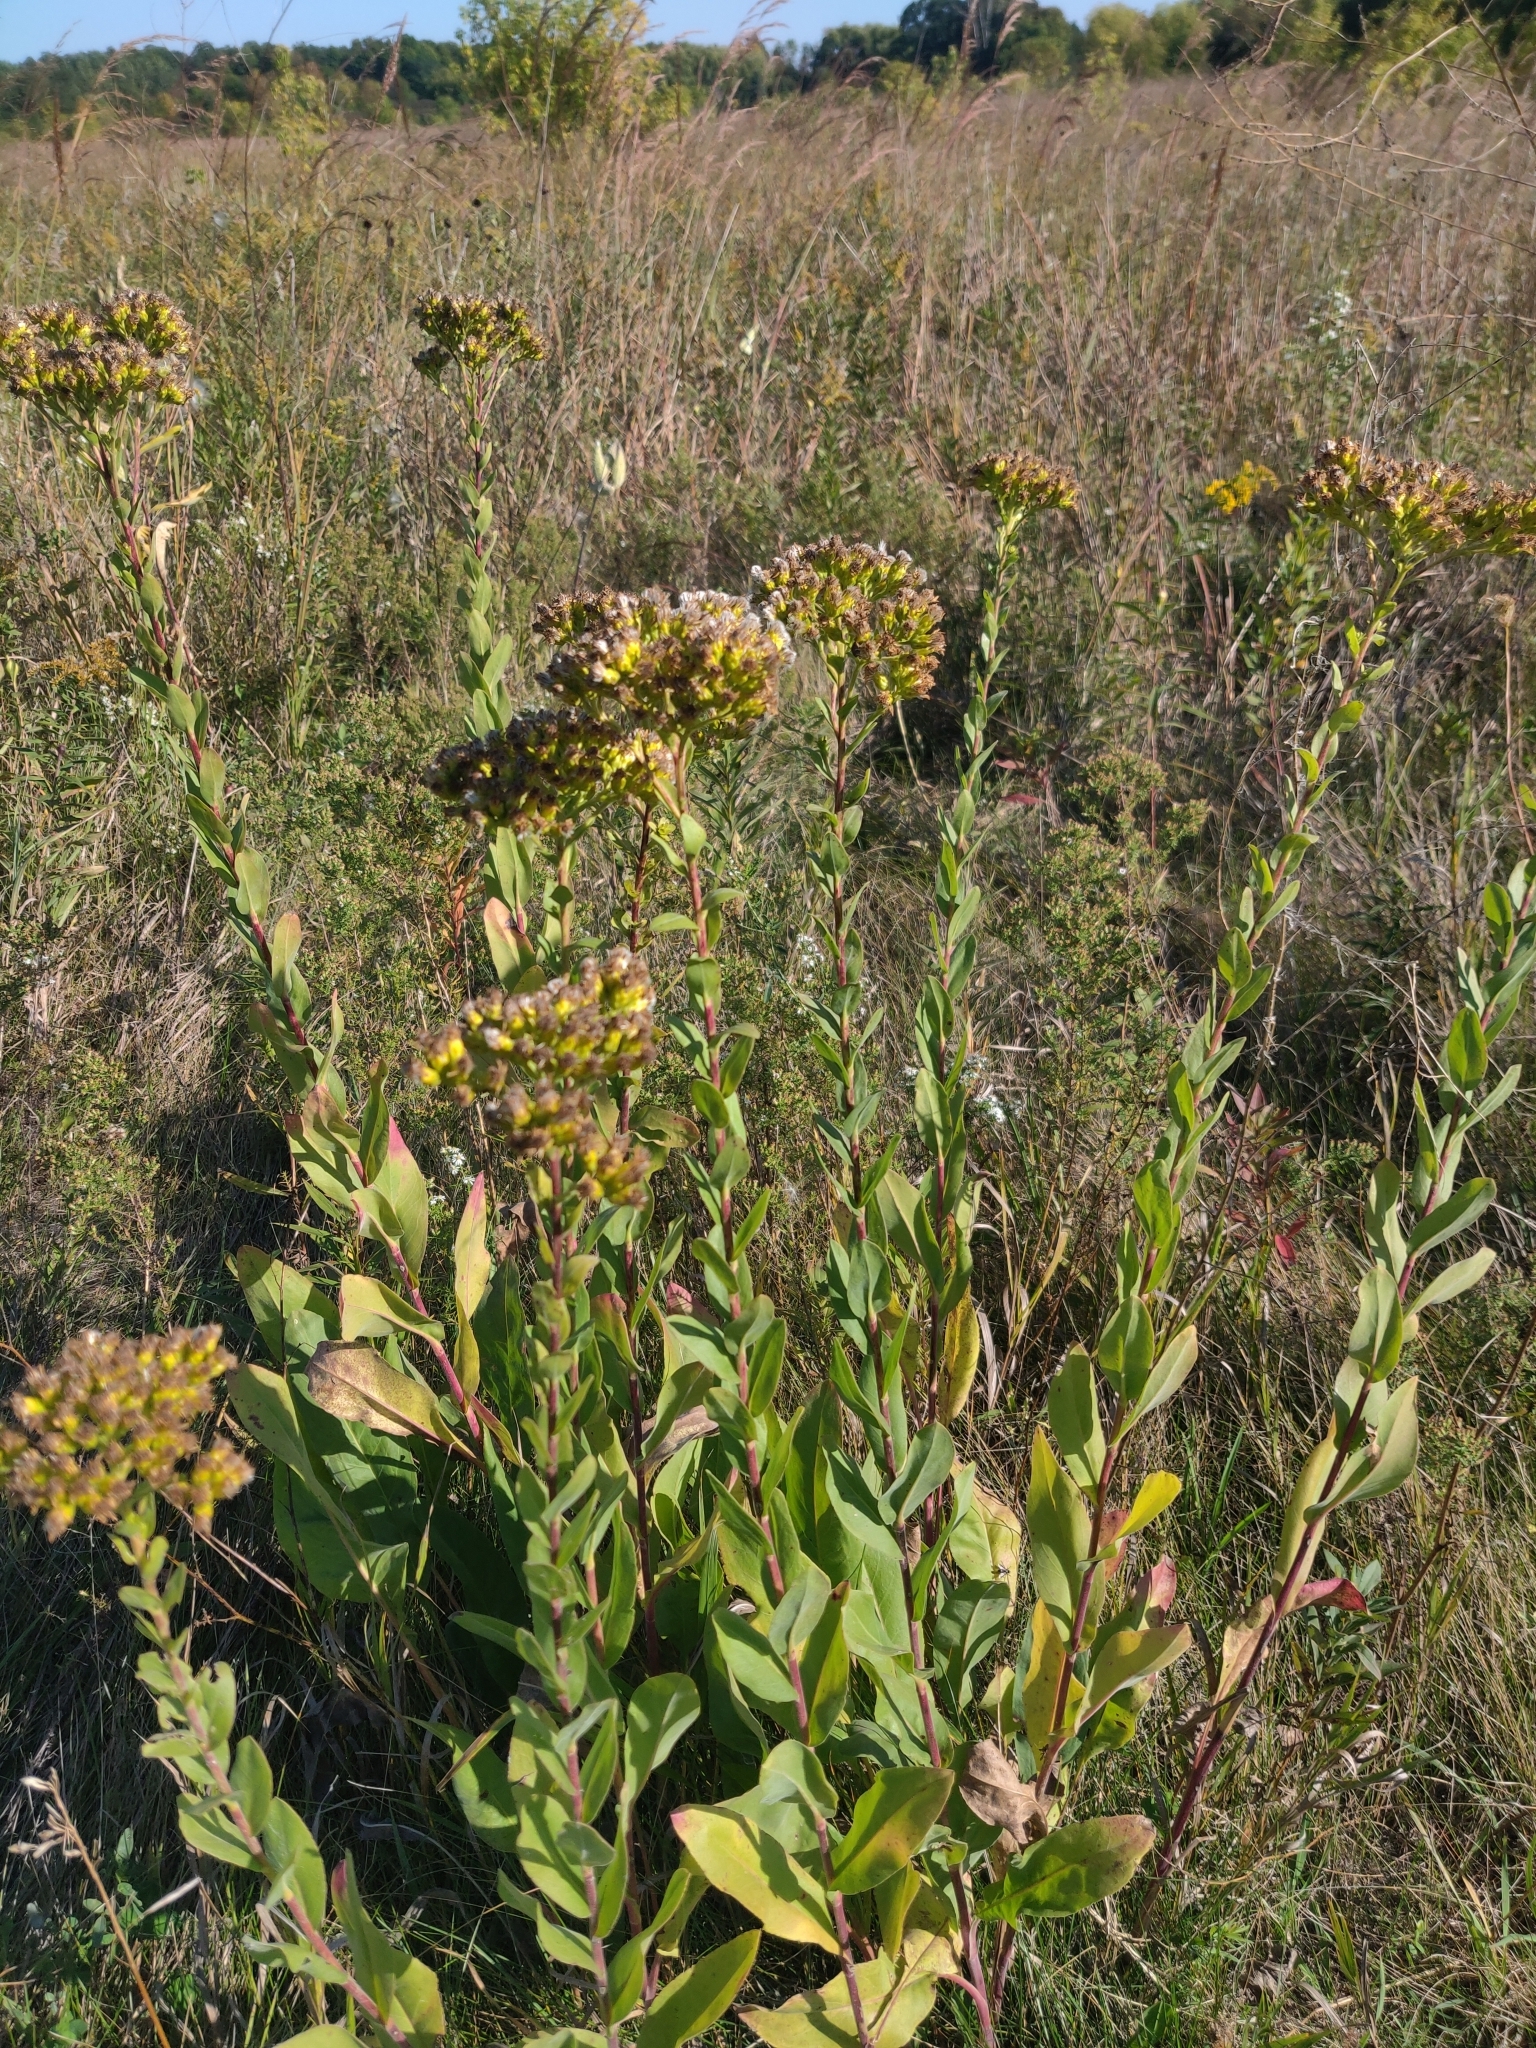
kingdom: Plantae
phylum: Tracheophyta
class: Magnoliopsida
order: Asterales
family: Asteraceae
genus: Solidago
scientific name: Solidago rigida
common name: Rigid goldenrod
